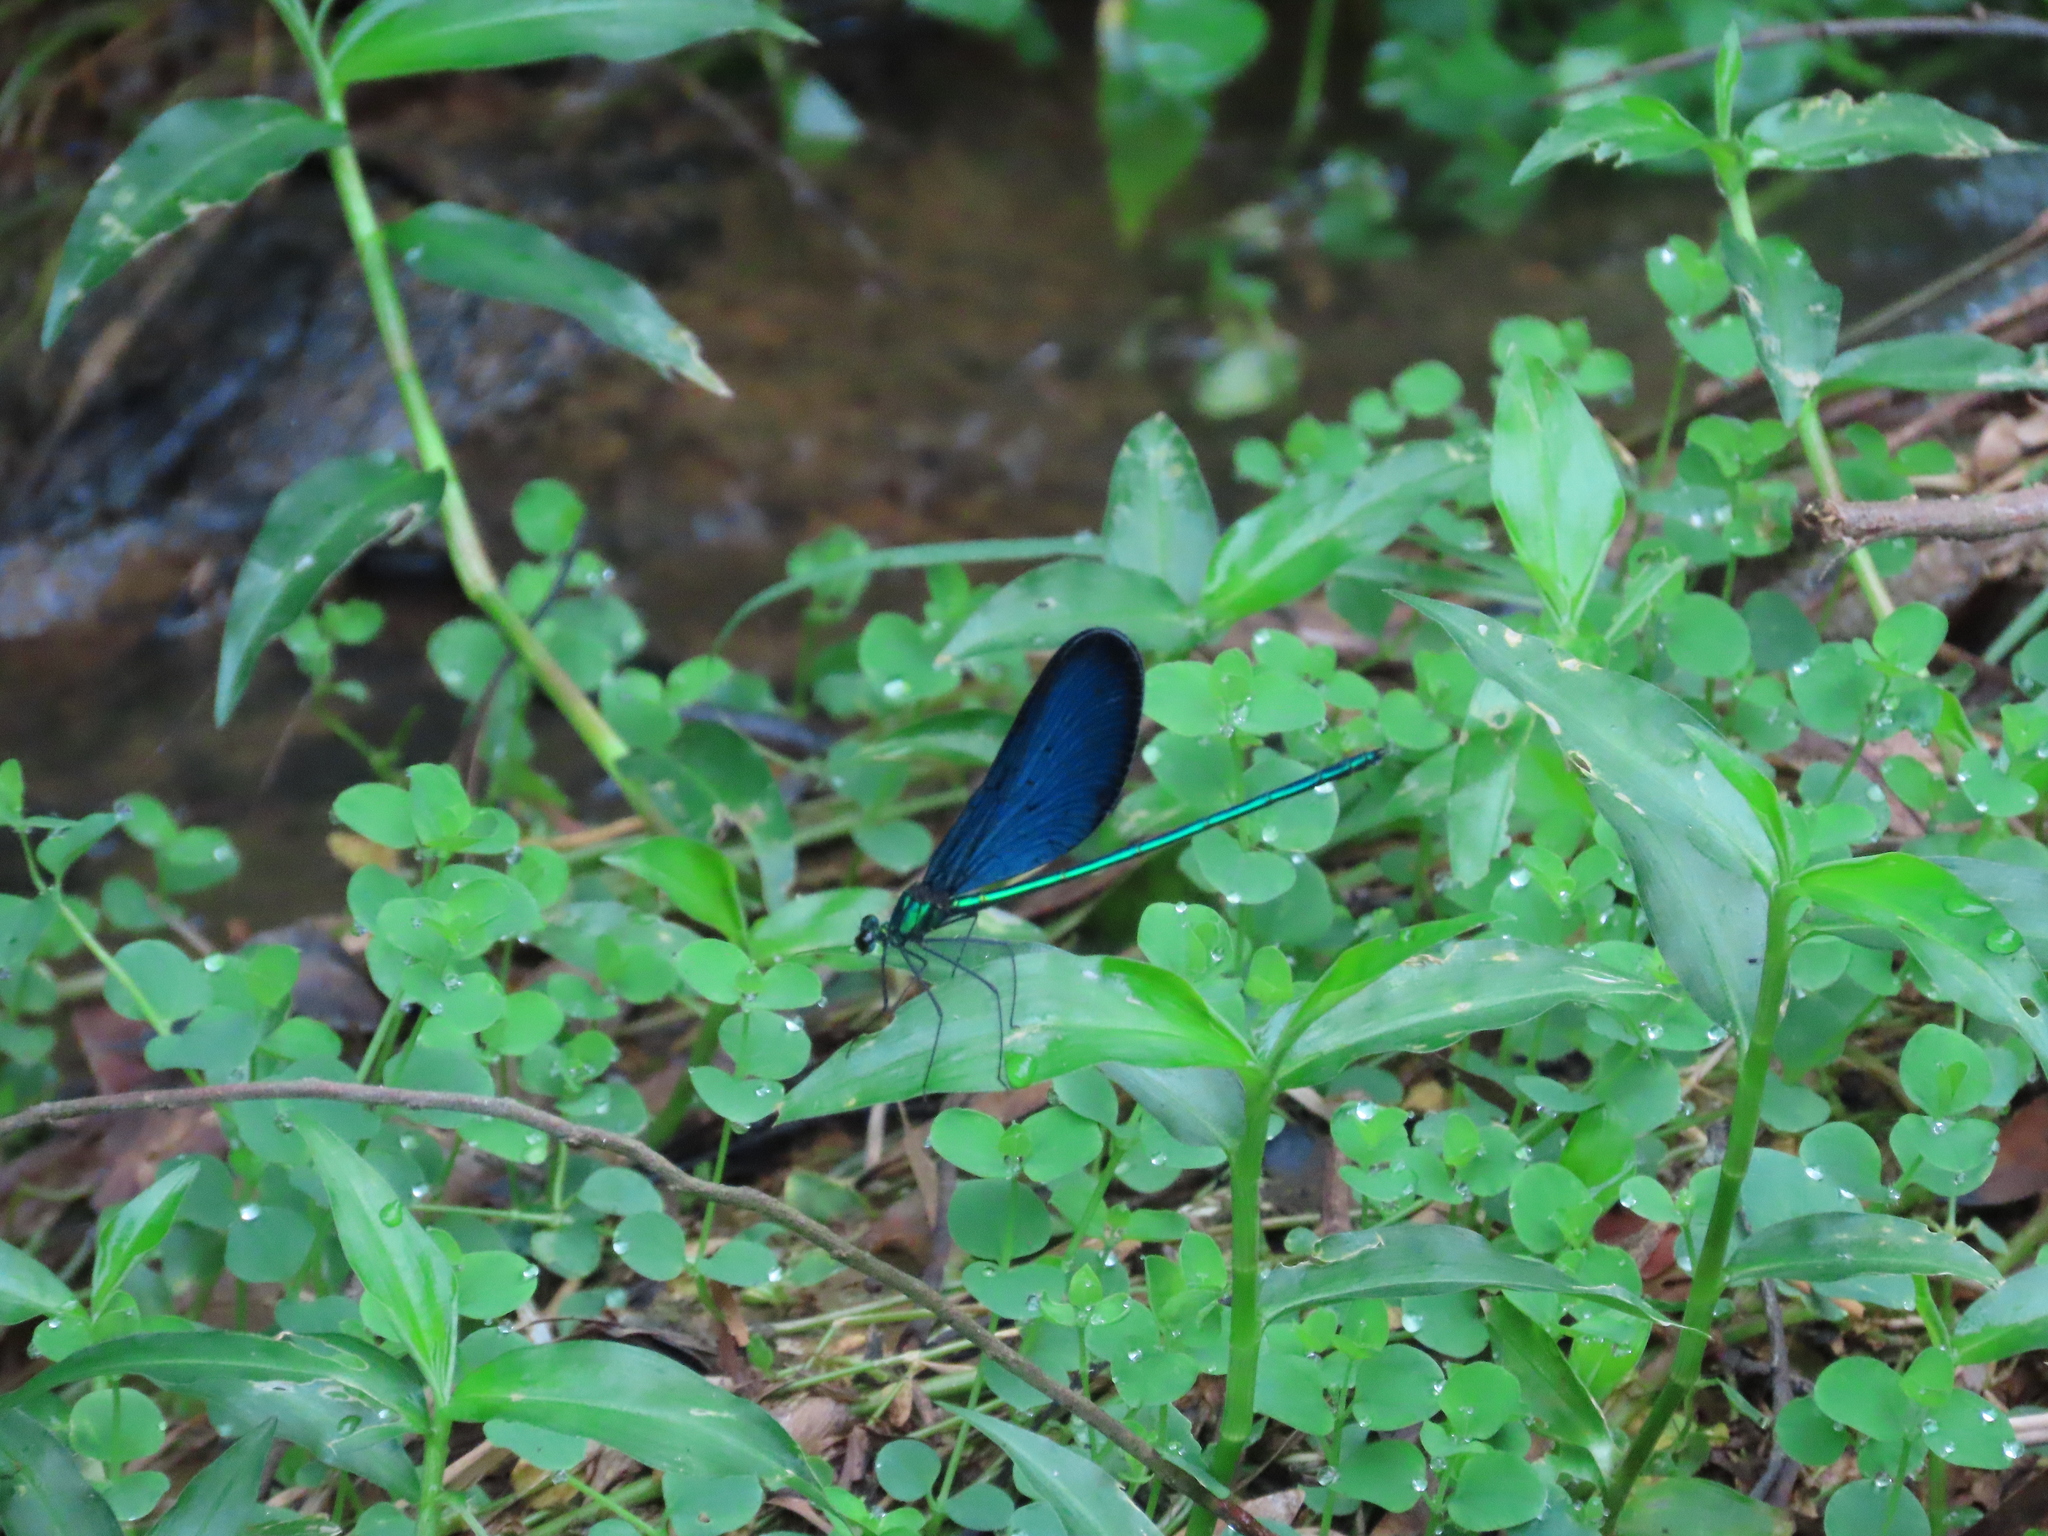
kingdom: Animalia
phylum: Arthropoda
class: Insecta
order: Odonata
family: Calopterygidae
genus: Matrona
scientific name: Matrona cyanoptera
